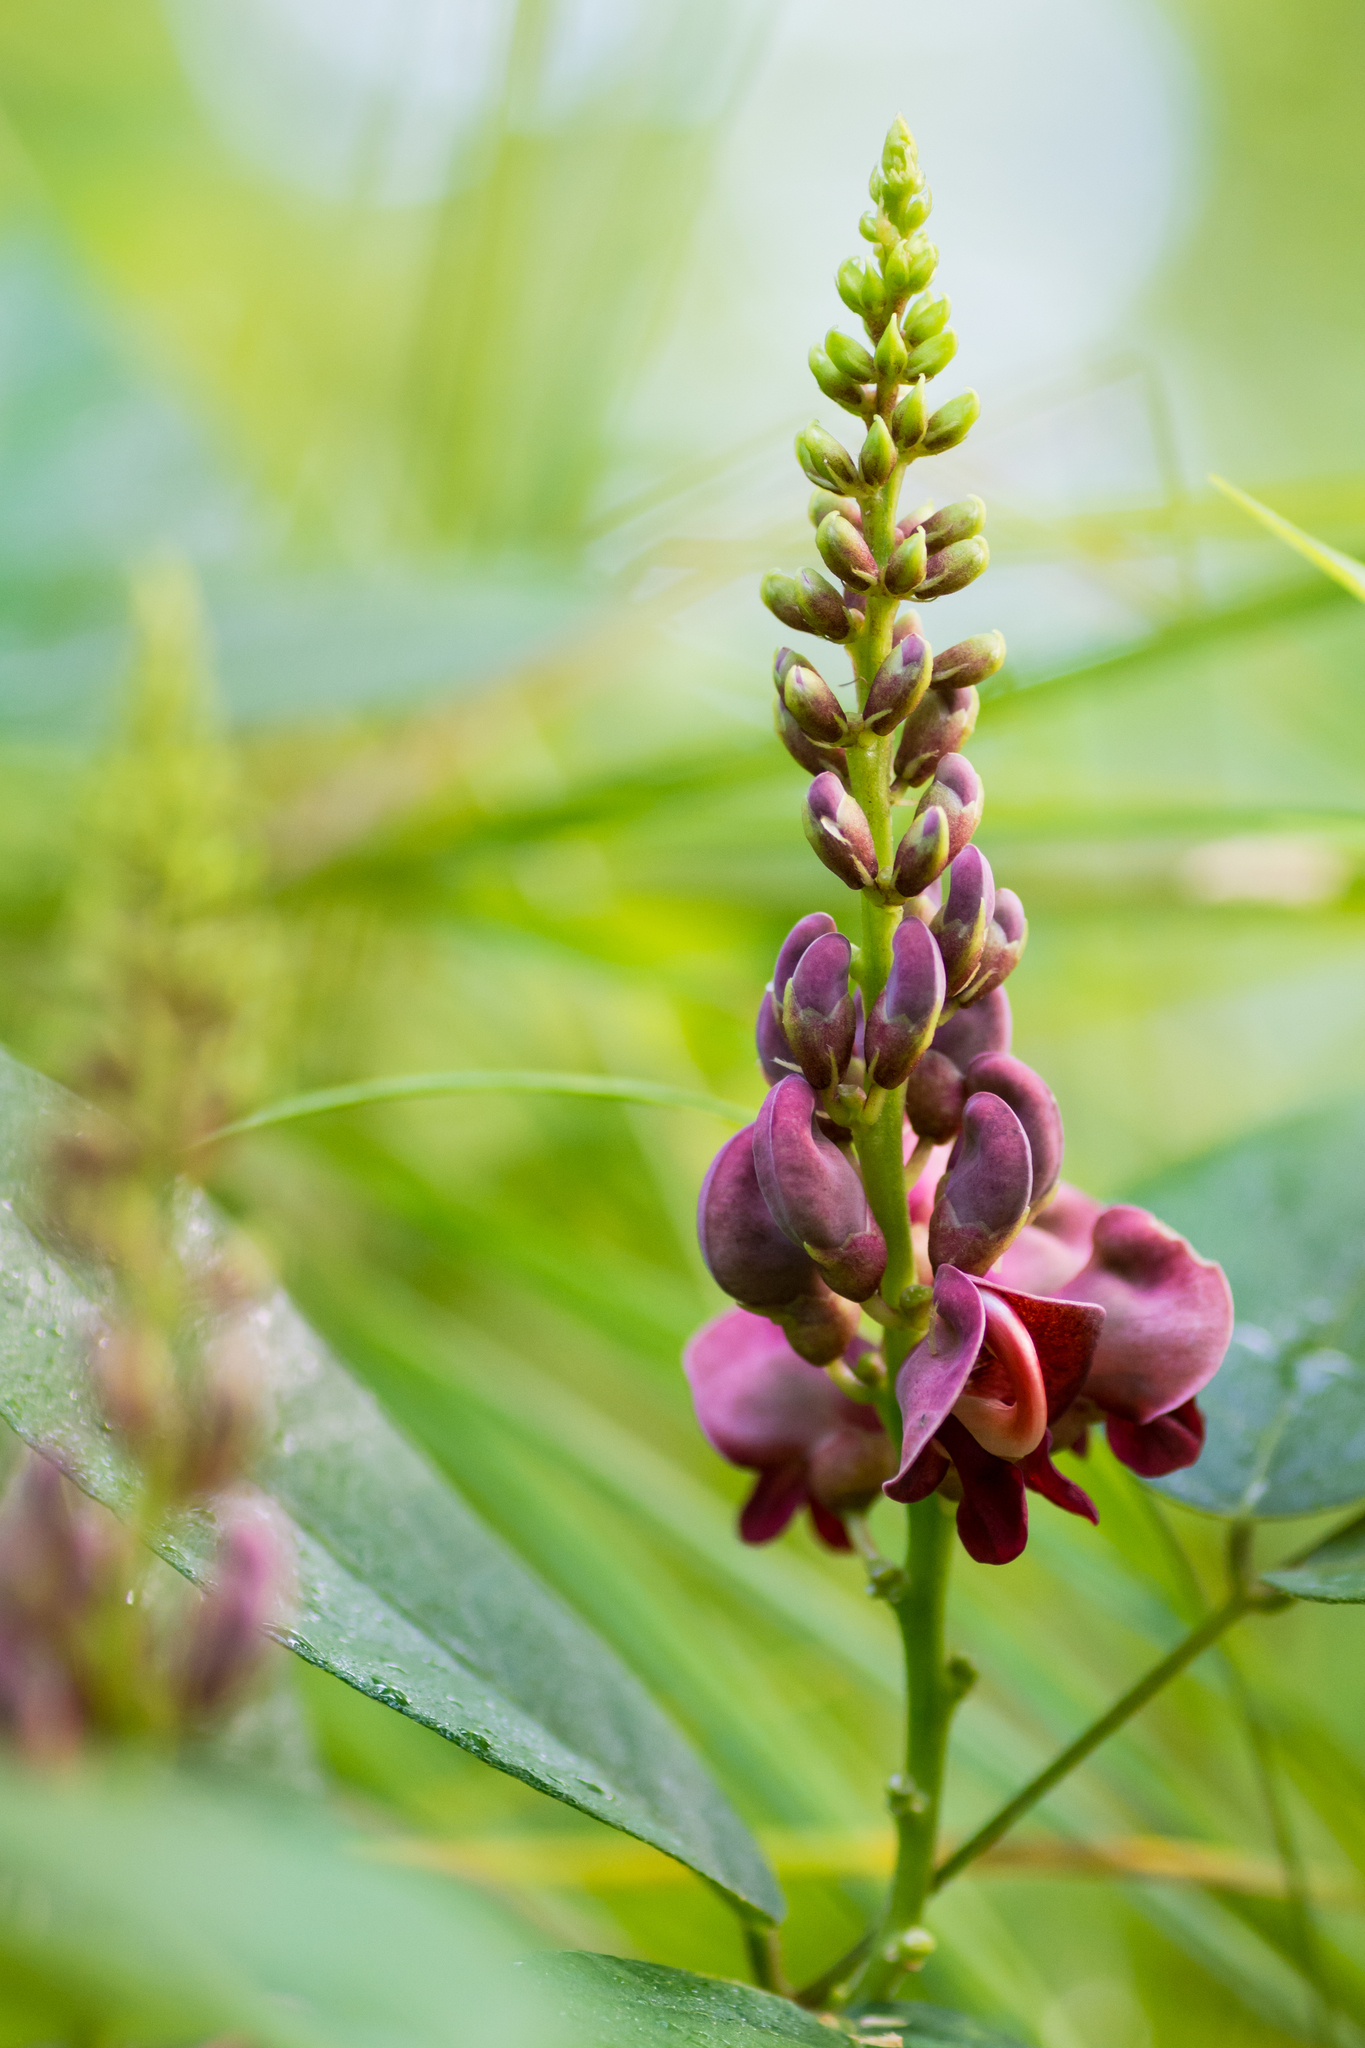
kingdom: Plantae
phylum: Tracheophyta
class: Magnoliopsida
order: Fabales
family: Fabaceae
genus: Apios
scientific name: Apios americana
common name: American potato-bean
